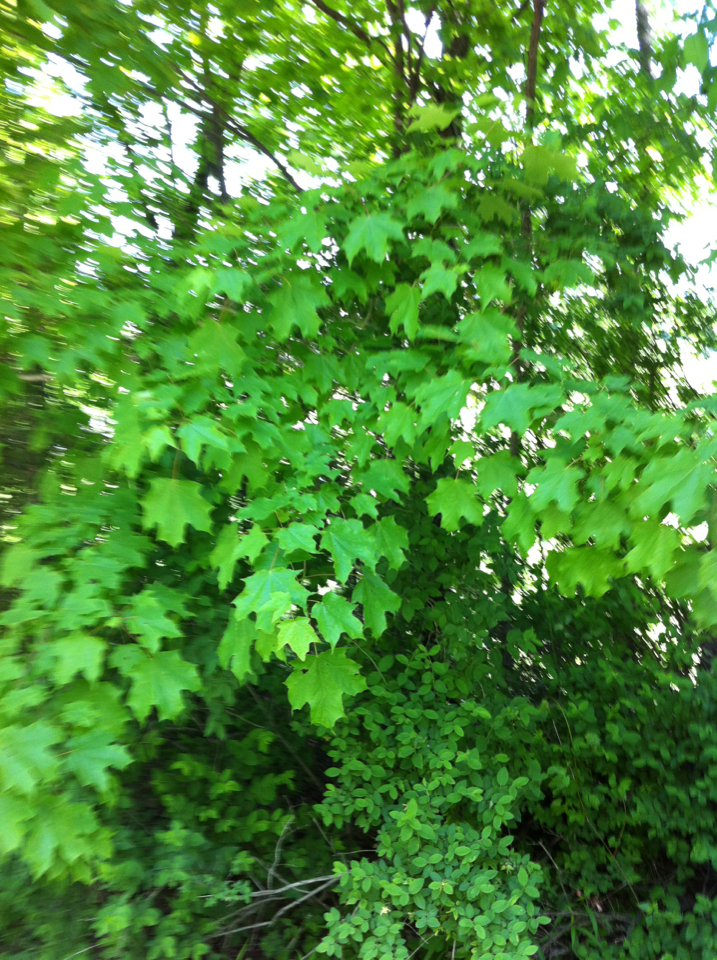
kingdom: Plantae
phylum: Tracheophyta
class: Magnoliopsida
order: Sapindales
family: Sapindaceae
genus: Acer
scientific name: Acer saccharum
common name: Sugar maple
